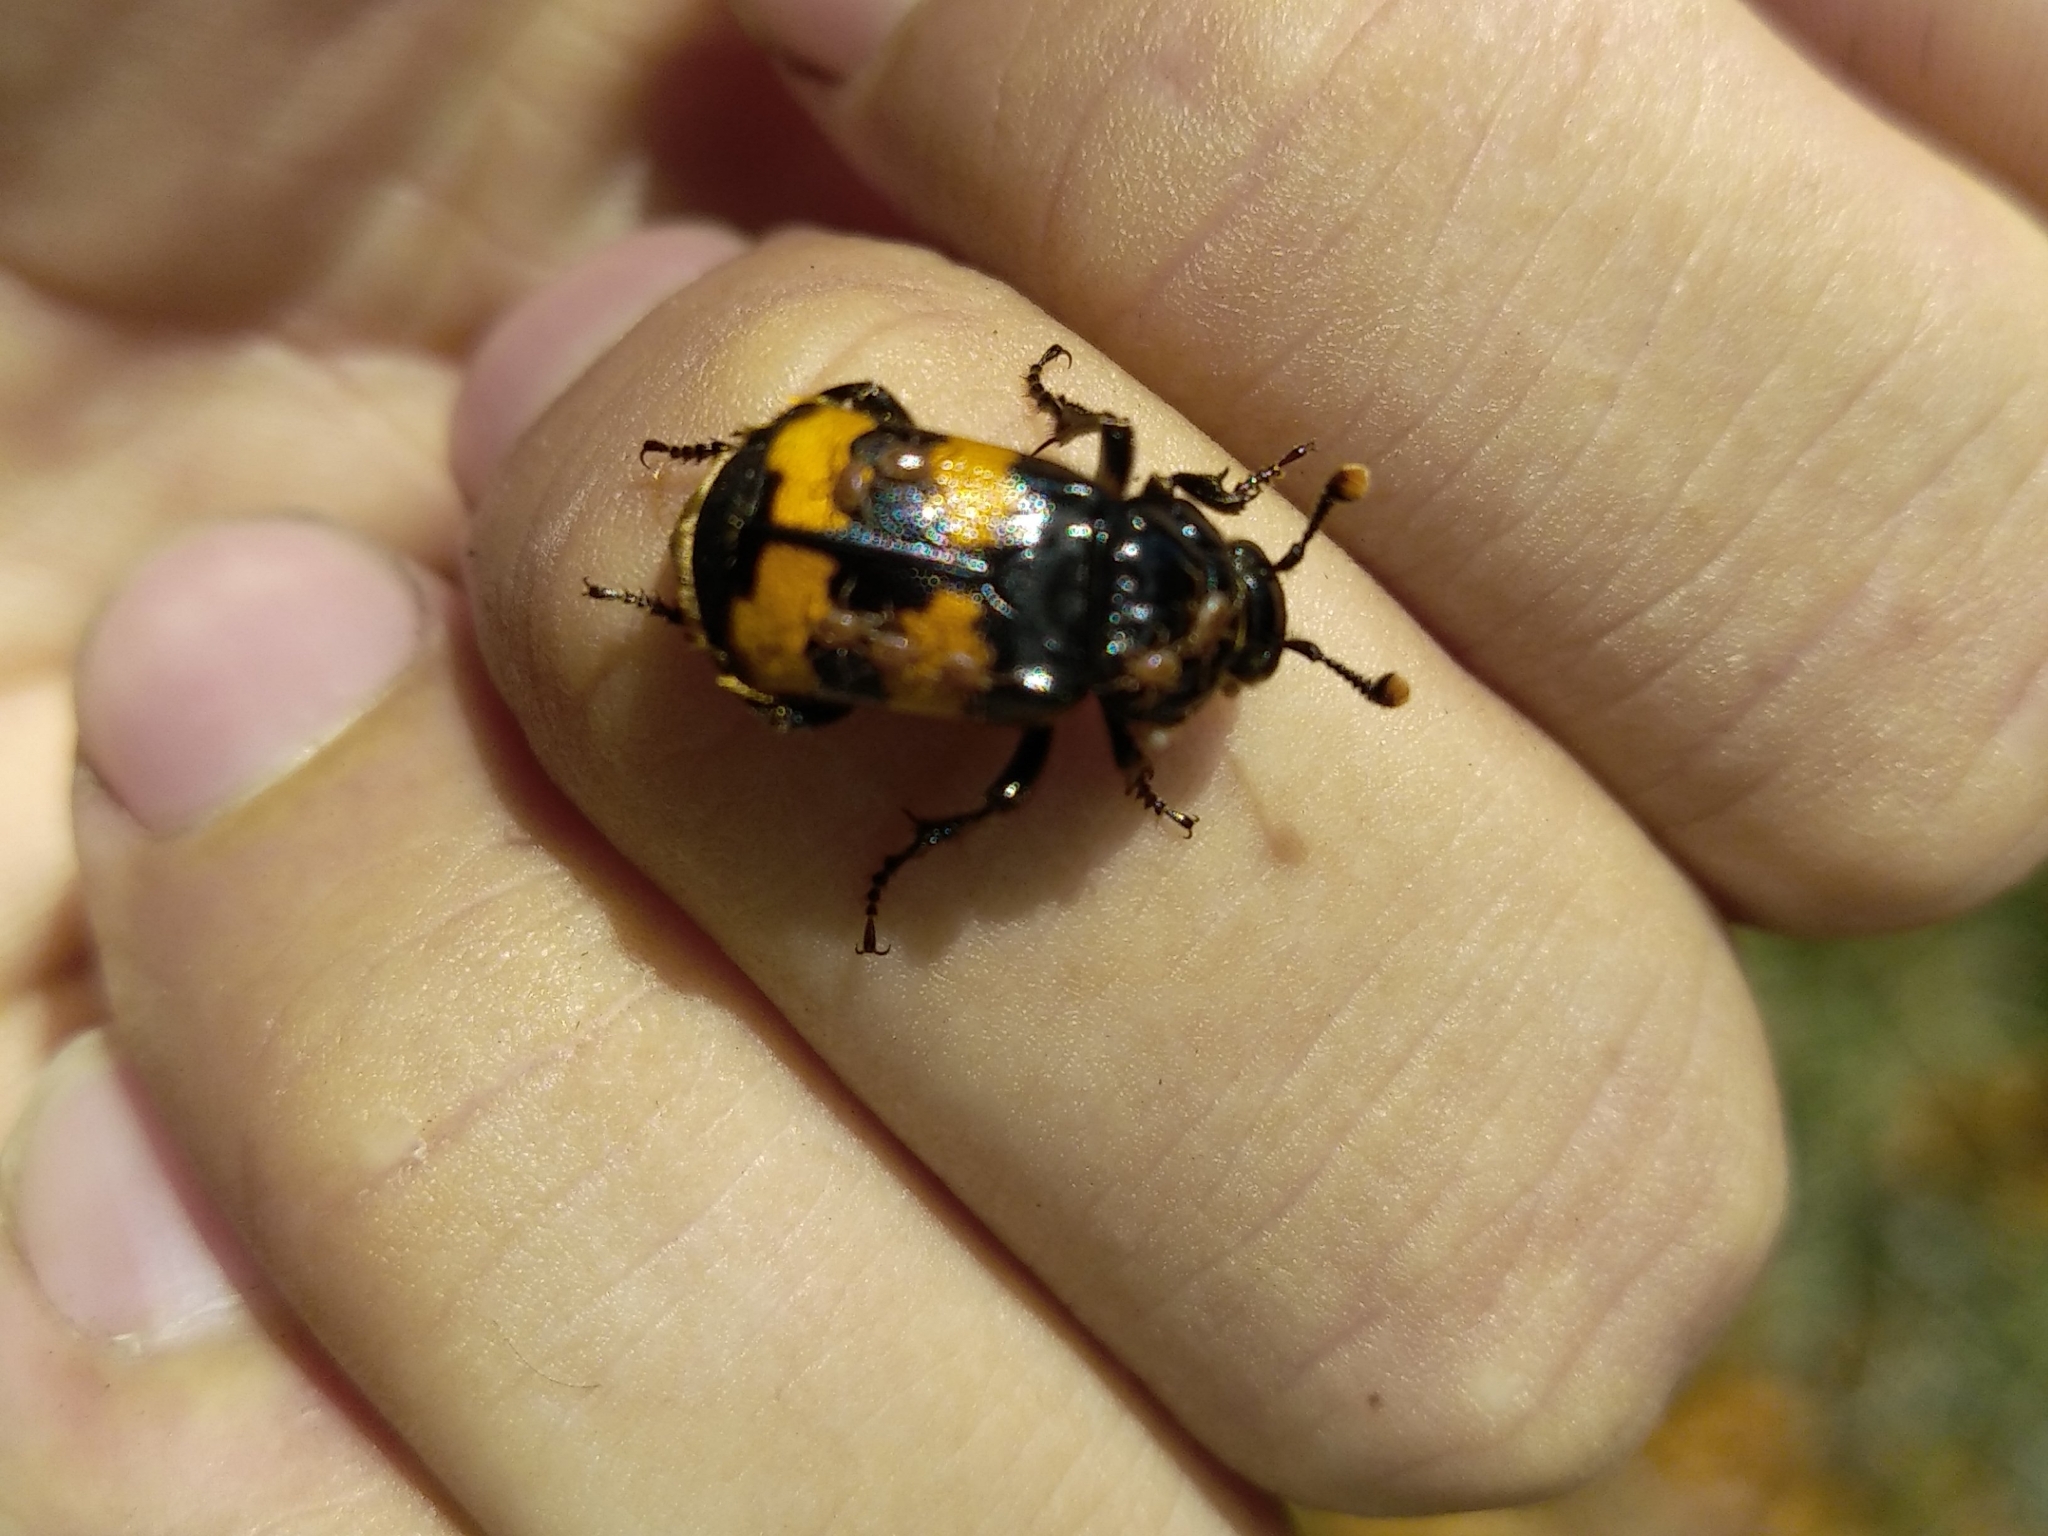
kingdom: Animalia
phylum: Arthropoda
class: Insecta
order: Coleoptera
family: Staphylinidae
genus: Nicrophorus
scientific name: Nicrophorus interruptus
